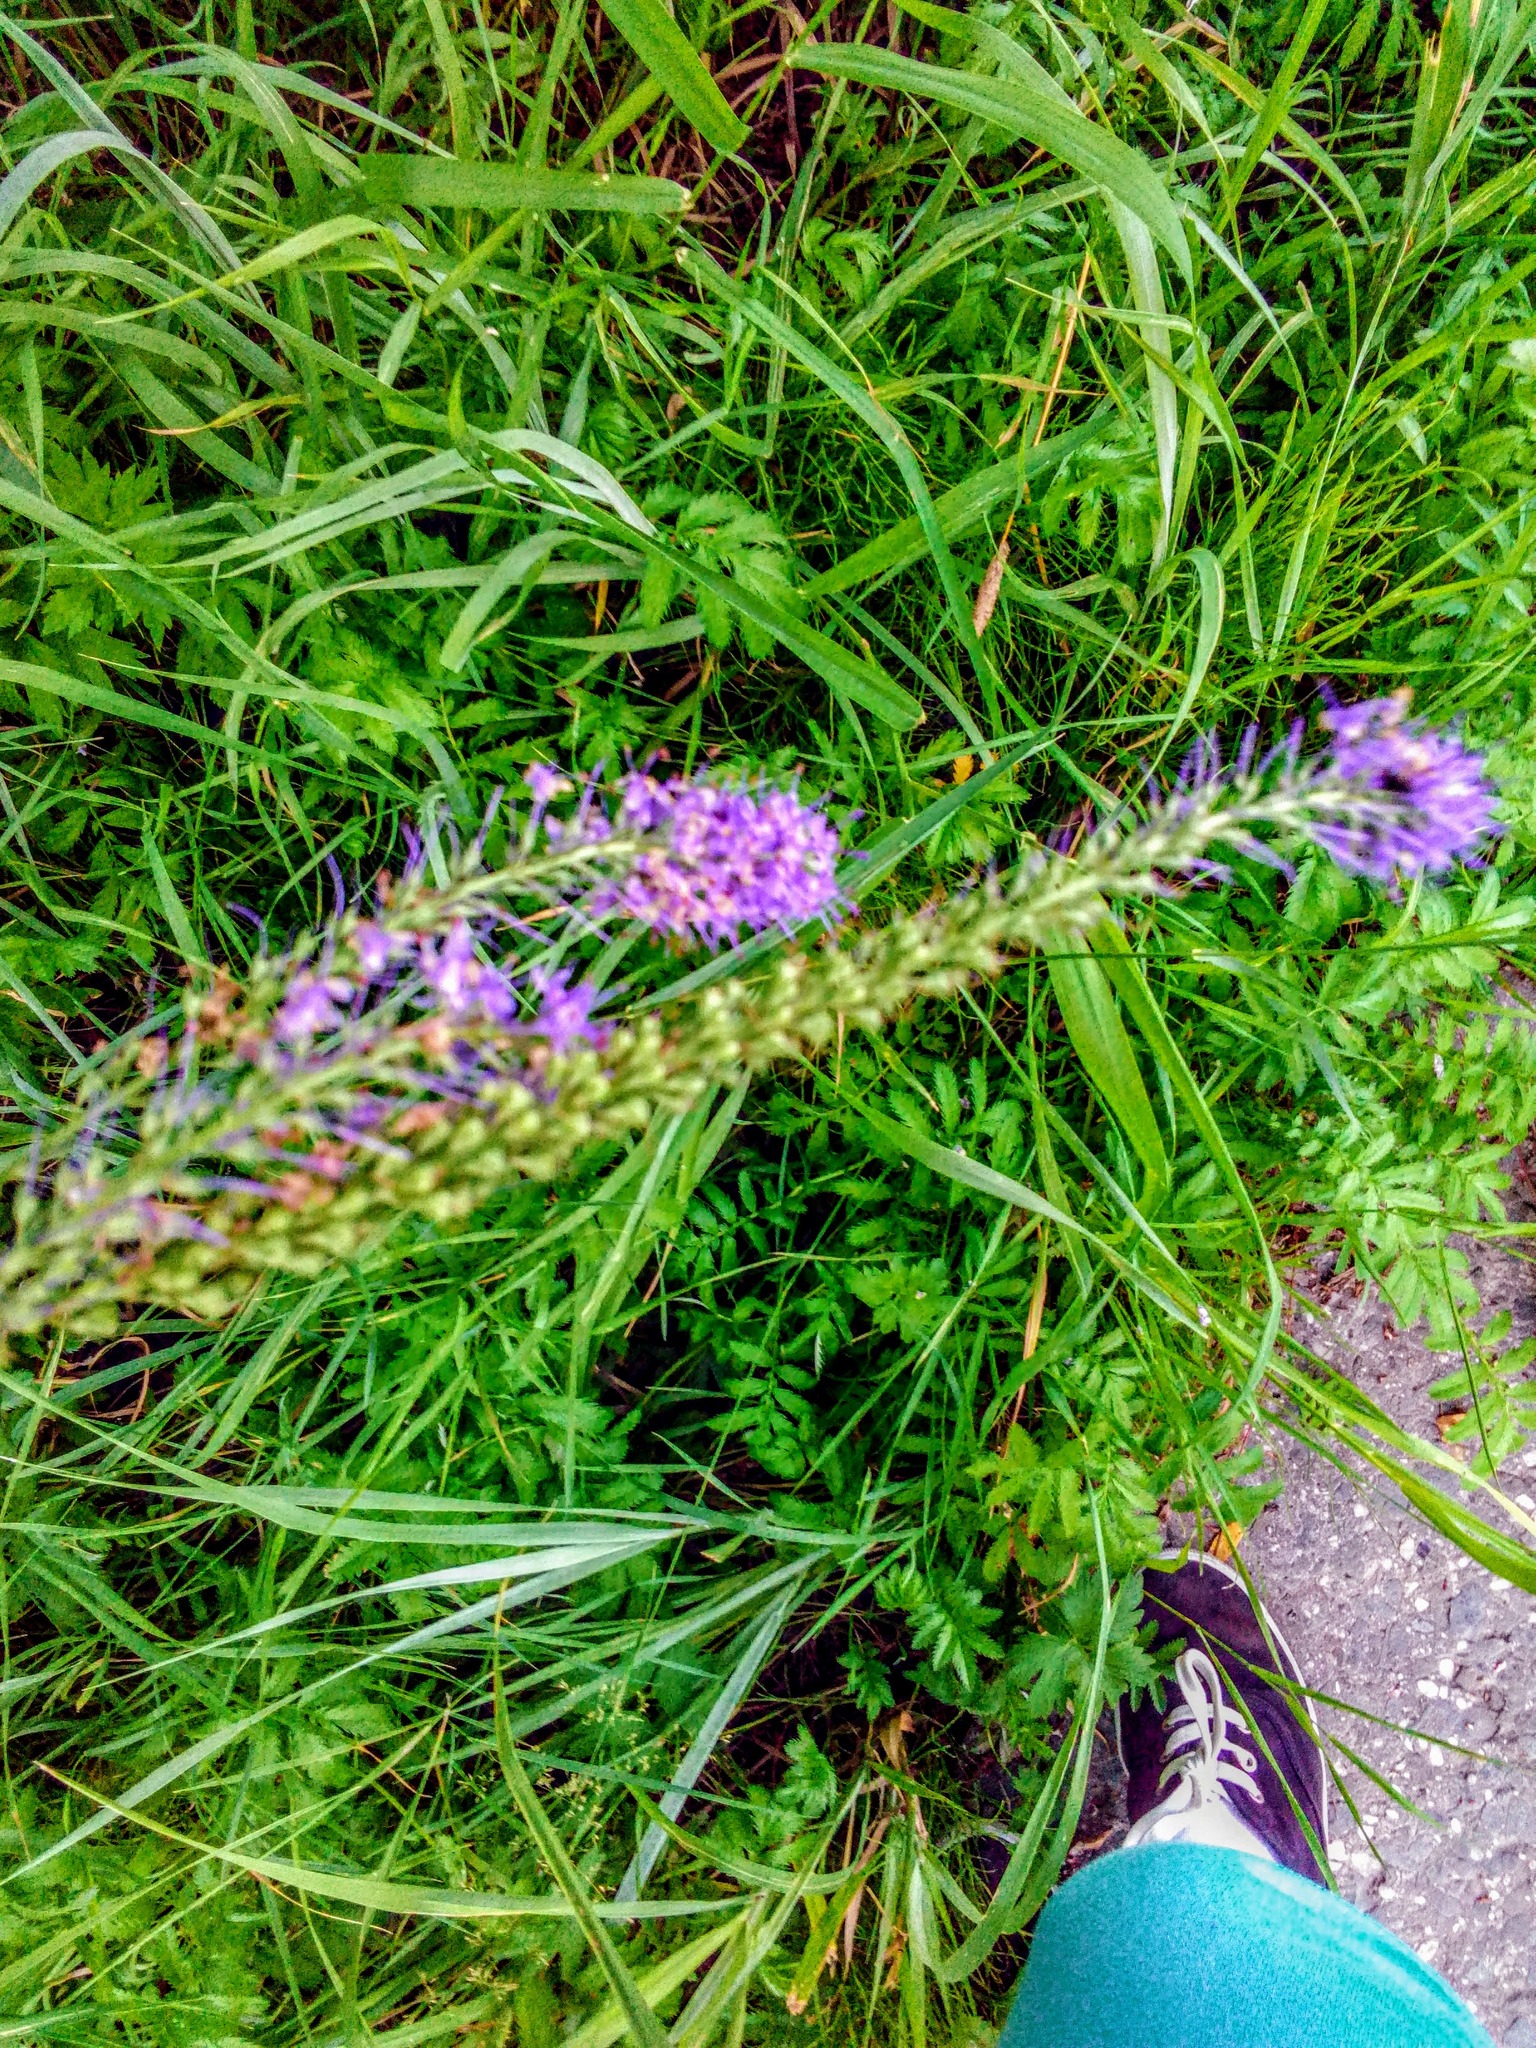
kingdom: Plantae
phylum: Tracheophyta
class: Magnoliopsida
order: Lamiales
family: Plantaginaceae
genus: Veronica
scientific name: Veronica longifolia
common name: Garden speedwell
